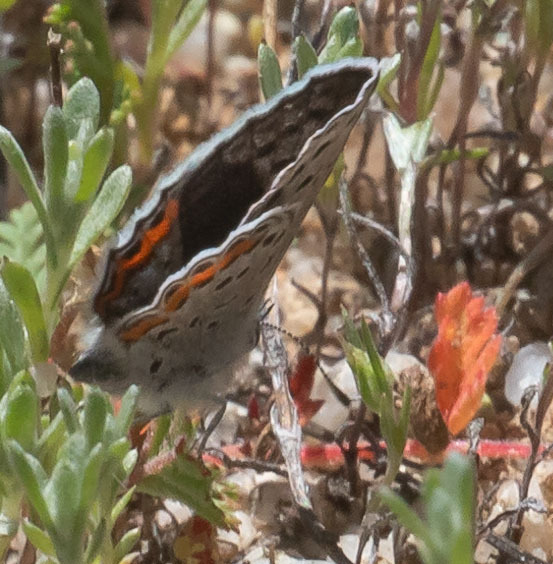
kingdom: Animalia
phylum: Arthropoda
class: Insecta
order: Lepidoptera
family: Lycaenidae
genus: Icaricia
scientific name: Icaricia acmon
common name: Acmon blue
